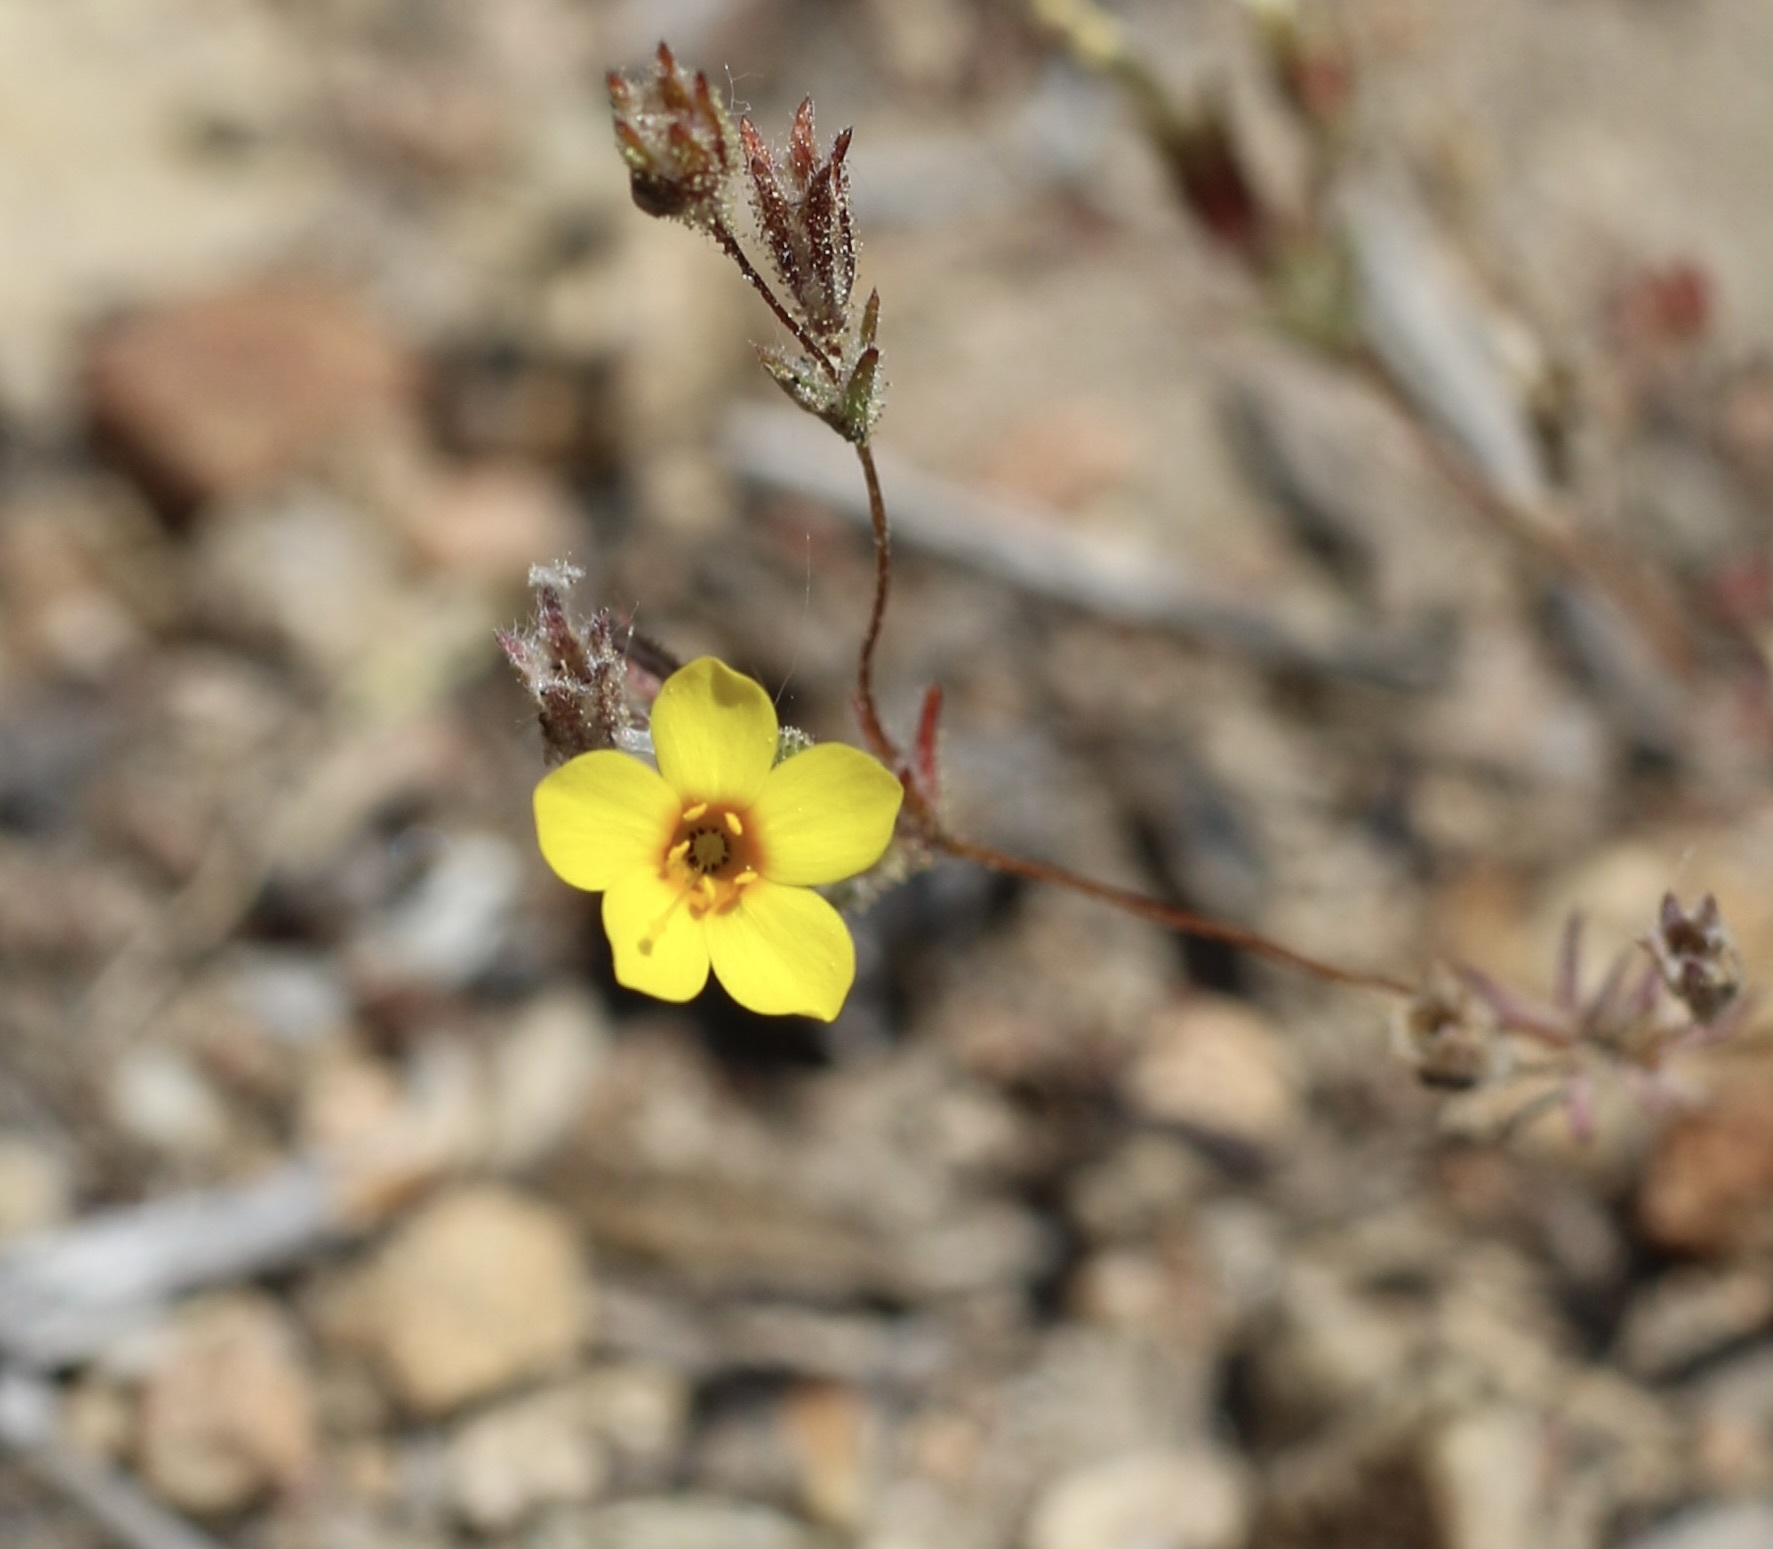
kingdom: Plantae
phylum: Tracheophyta
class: Magnoliopsida
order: Ericales
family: Polemoniaceae
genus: Leptosiphon
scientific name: Leptosiphon chrysanthus
